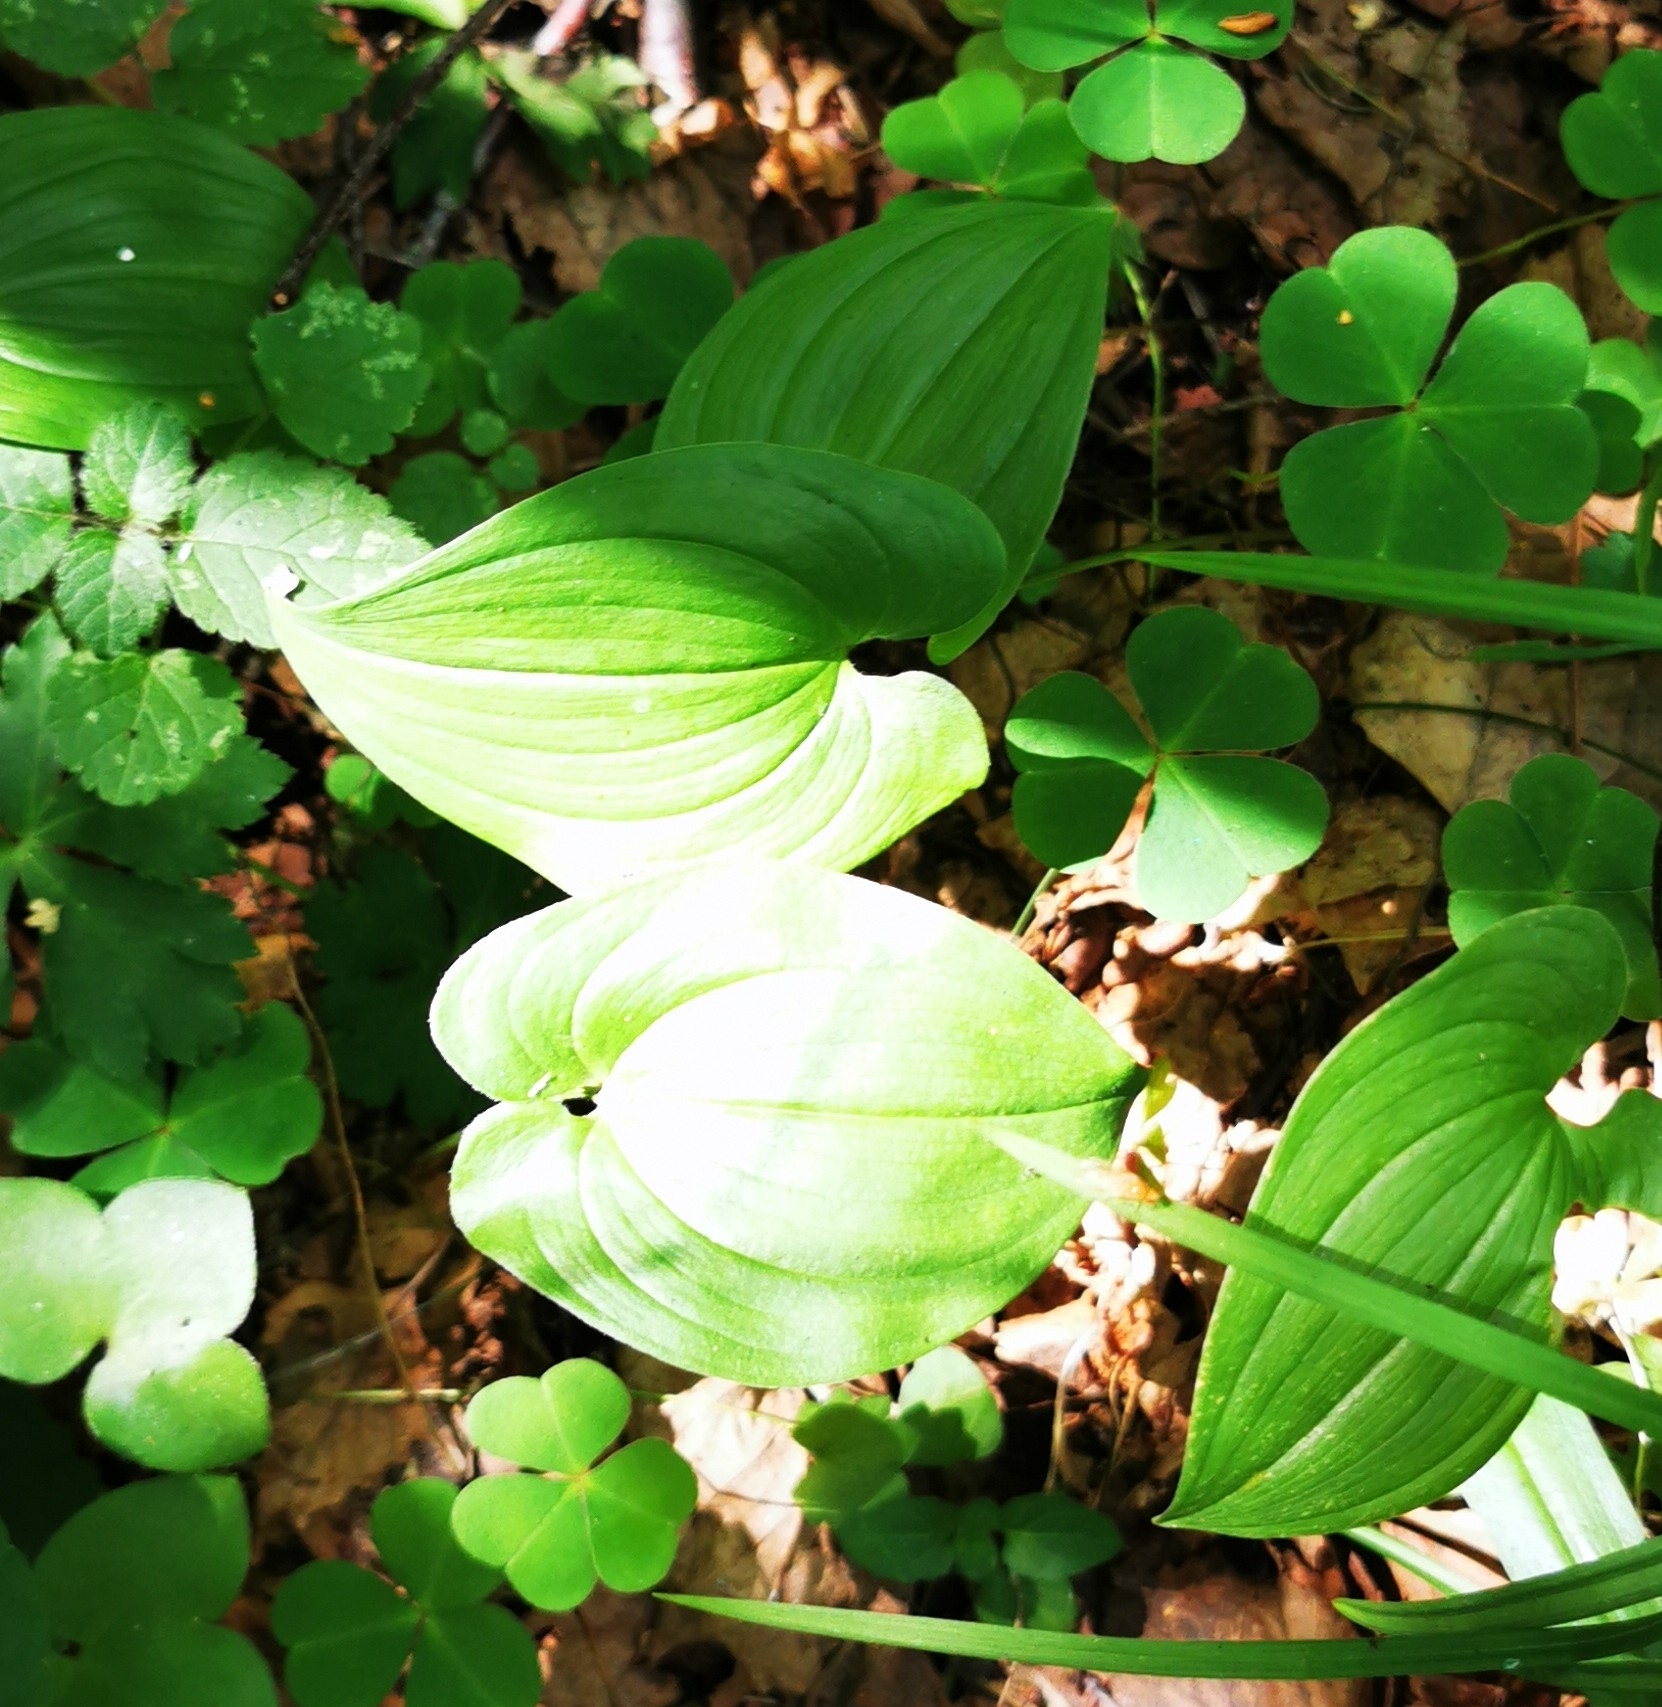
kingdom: Plantae
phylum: Tracheophyta
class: Liliopsida
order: Asparagales
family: Asparagaceae
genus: Maianthemum
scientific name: Maianthemum bifolium
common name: May lily
